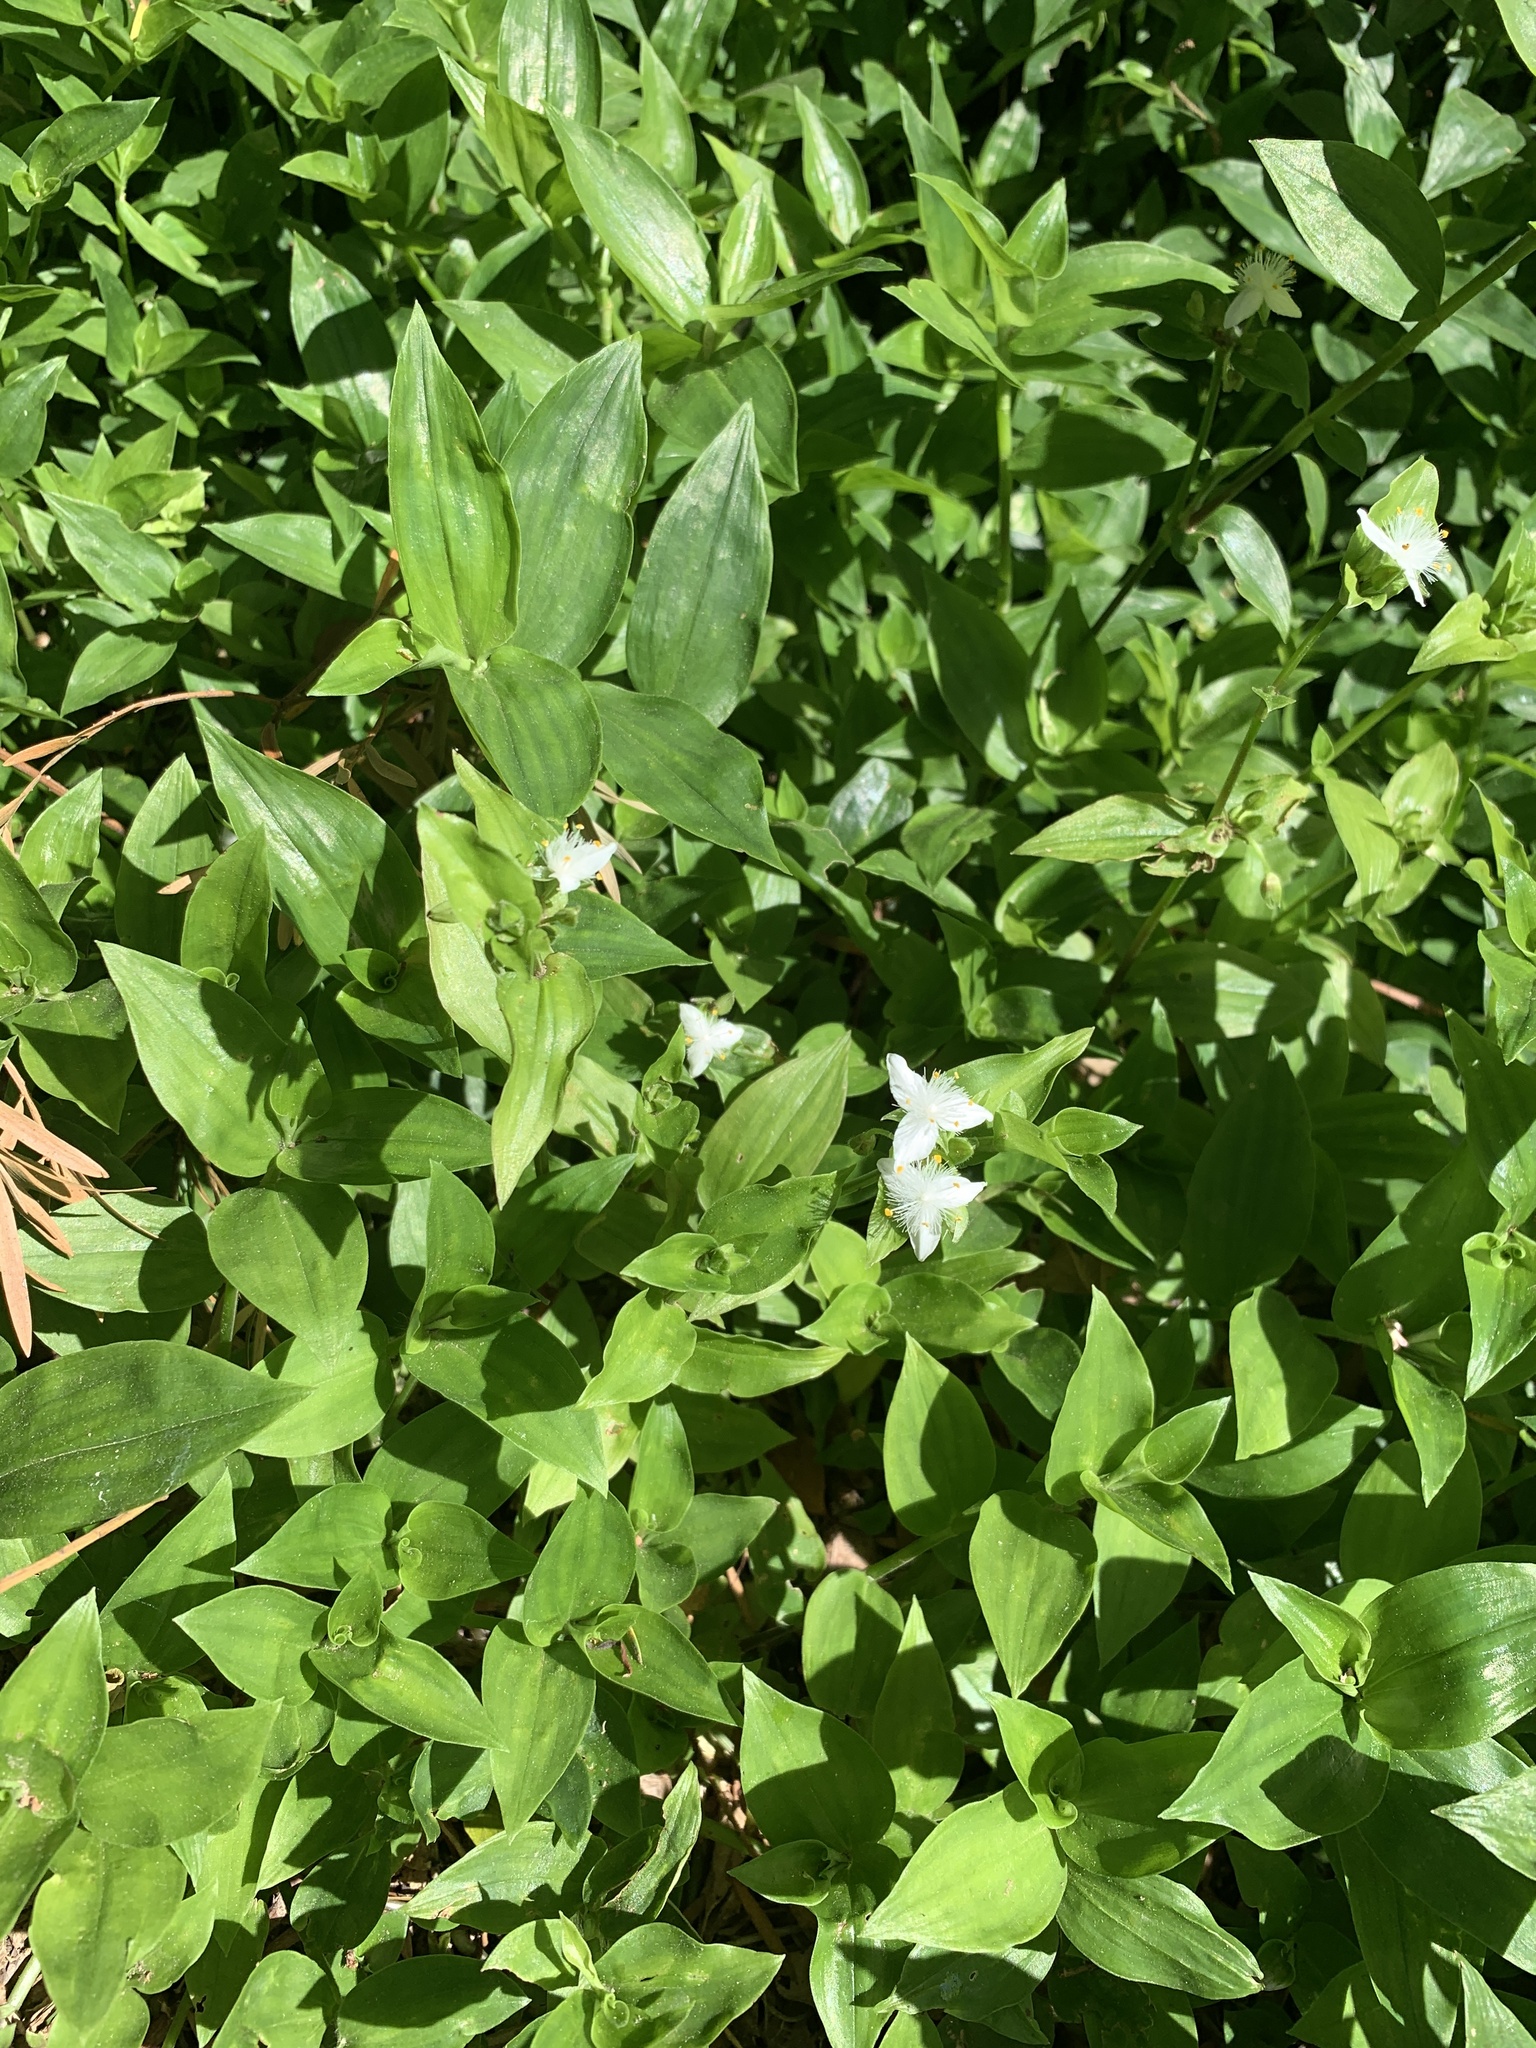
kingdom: Plantae
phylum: Tracheophyta
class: Liliopsida
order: Commelinales
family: Commelinaceae
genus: Tradescantia
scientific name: Tradescantia fluminensis
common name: Wandering-jew
